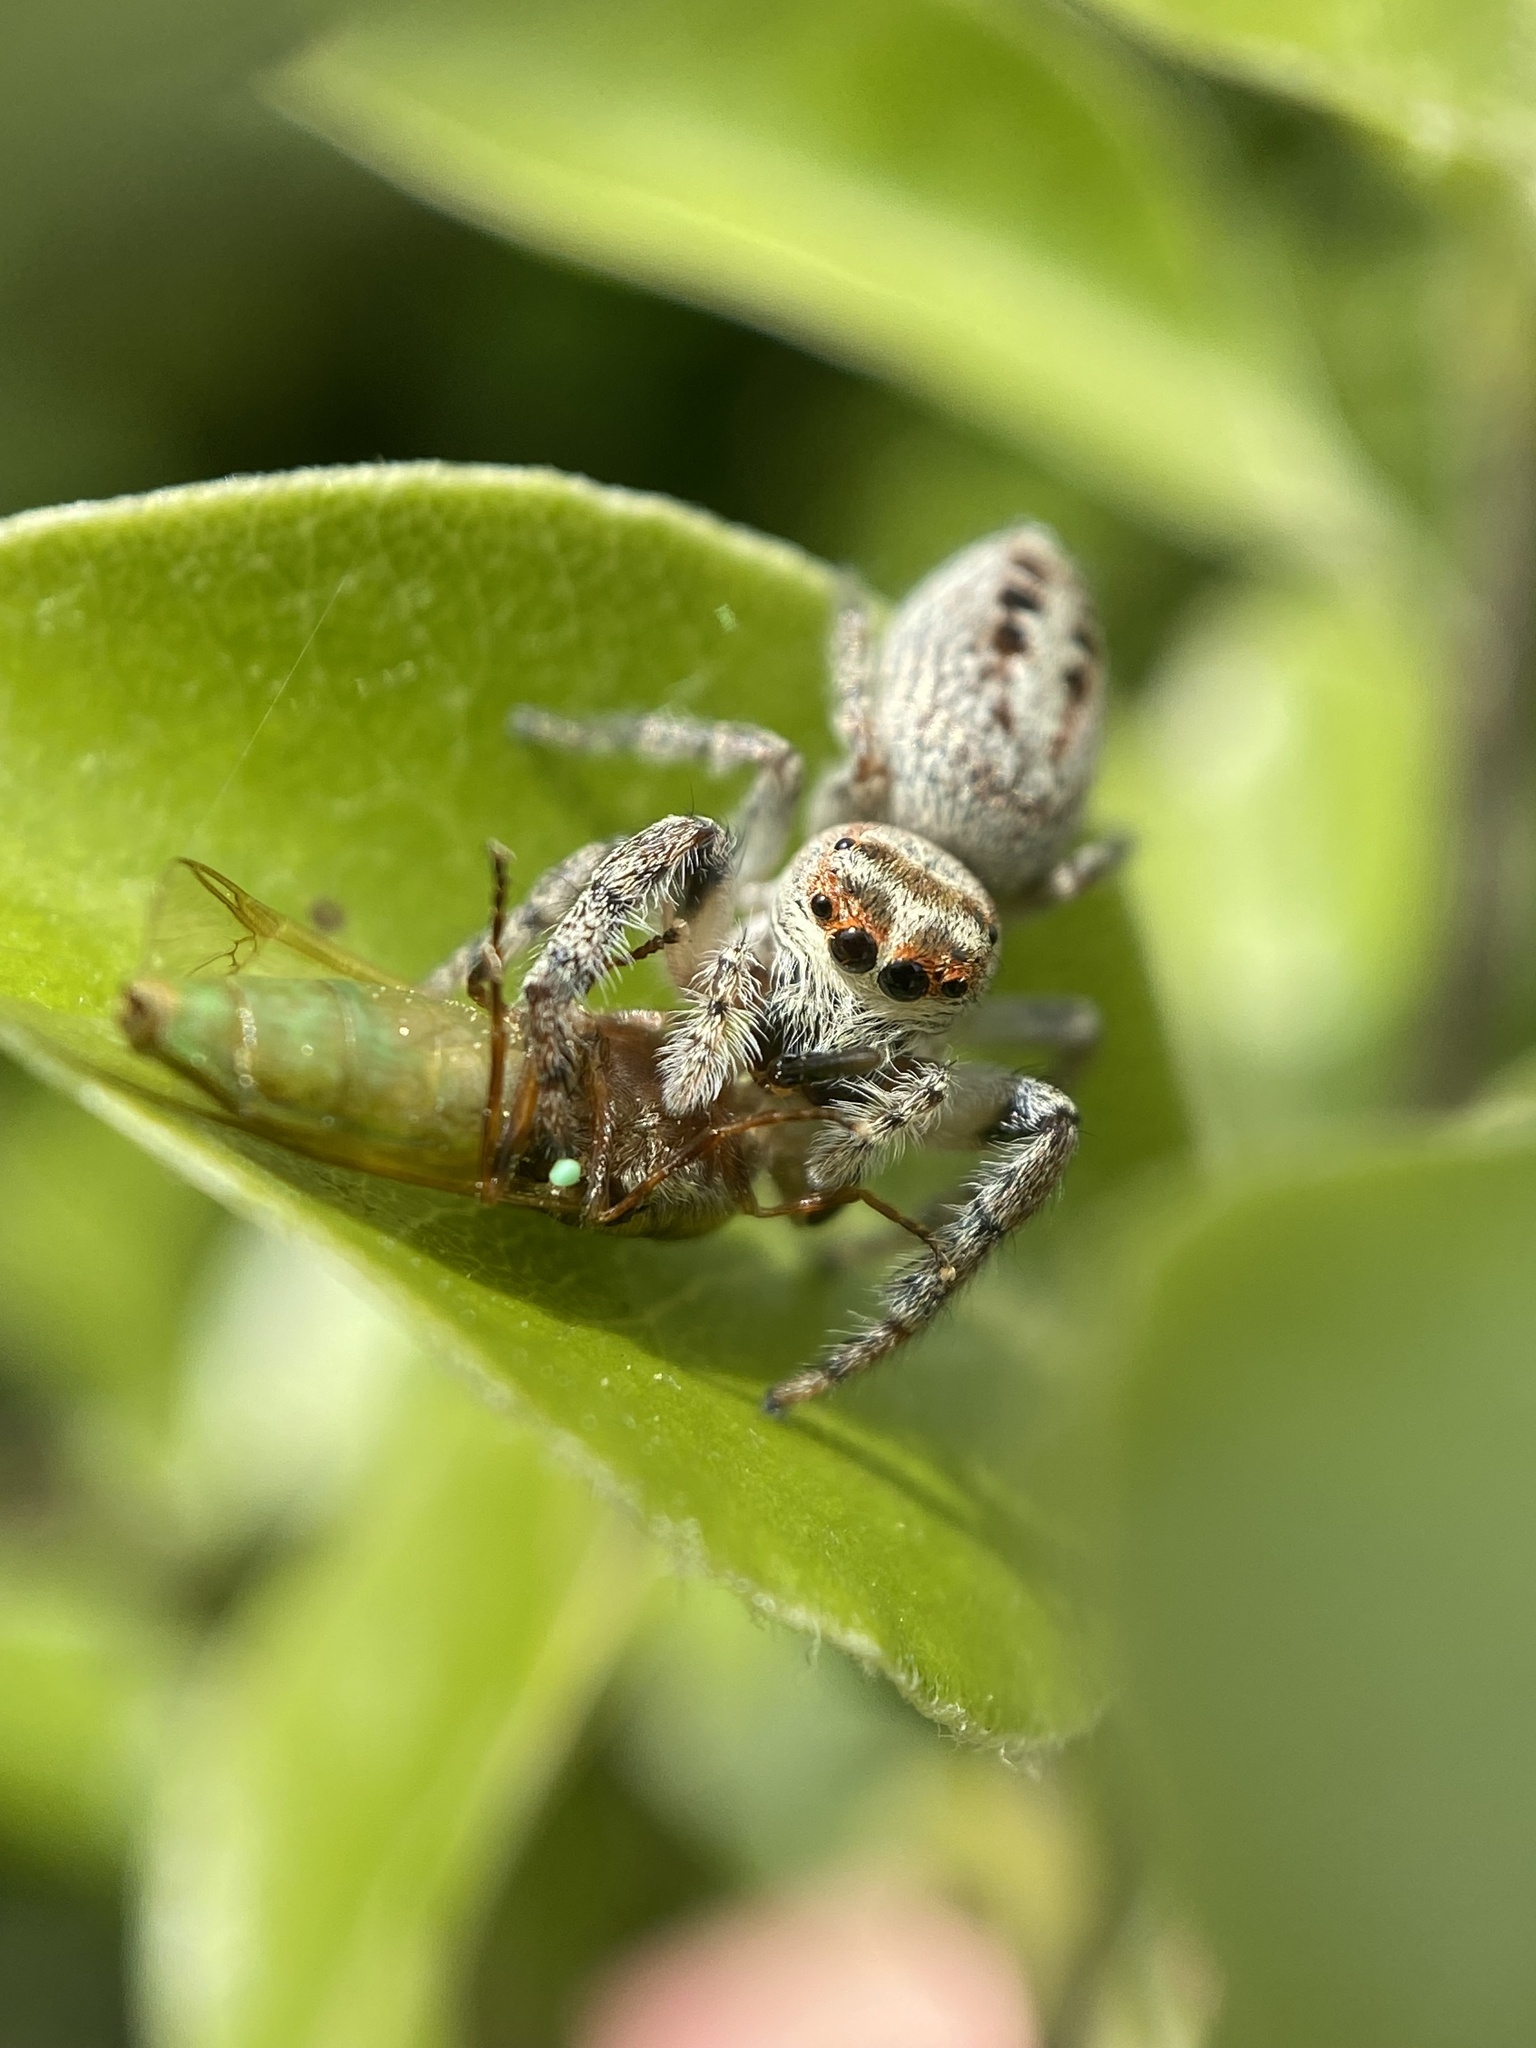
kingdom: Animalia
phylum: Arthropoda
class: Arachnida
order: Araneae
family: Salticidae
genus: Opisthoncus
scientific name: Opisthoncus polyphemus
